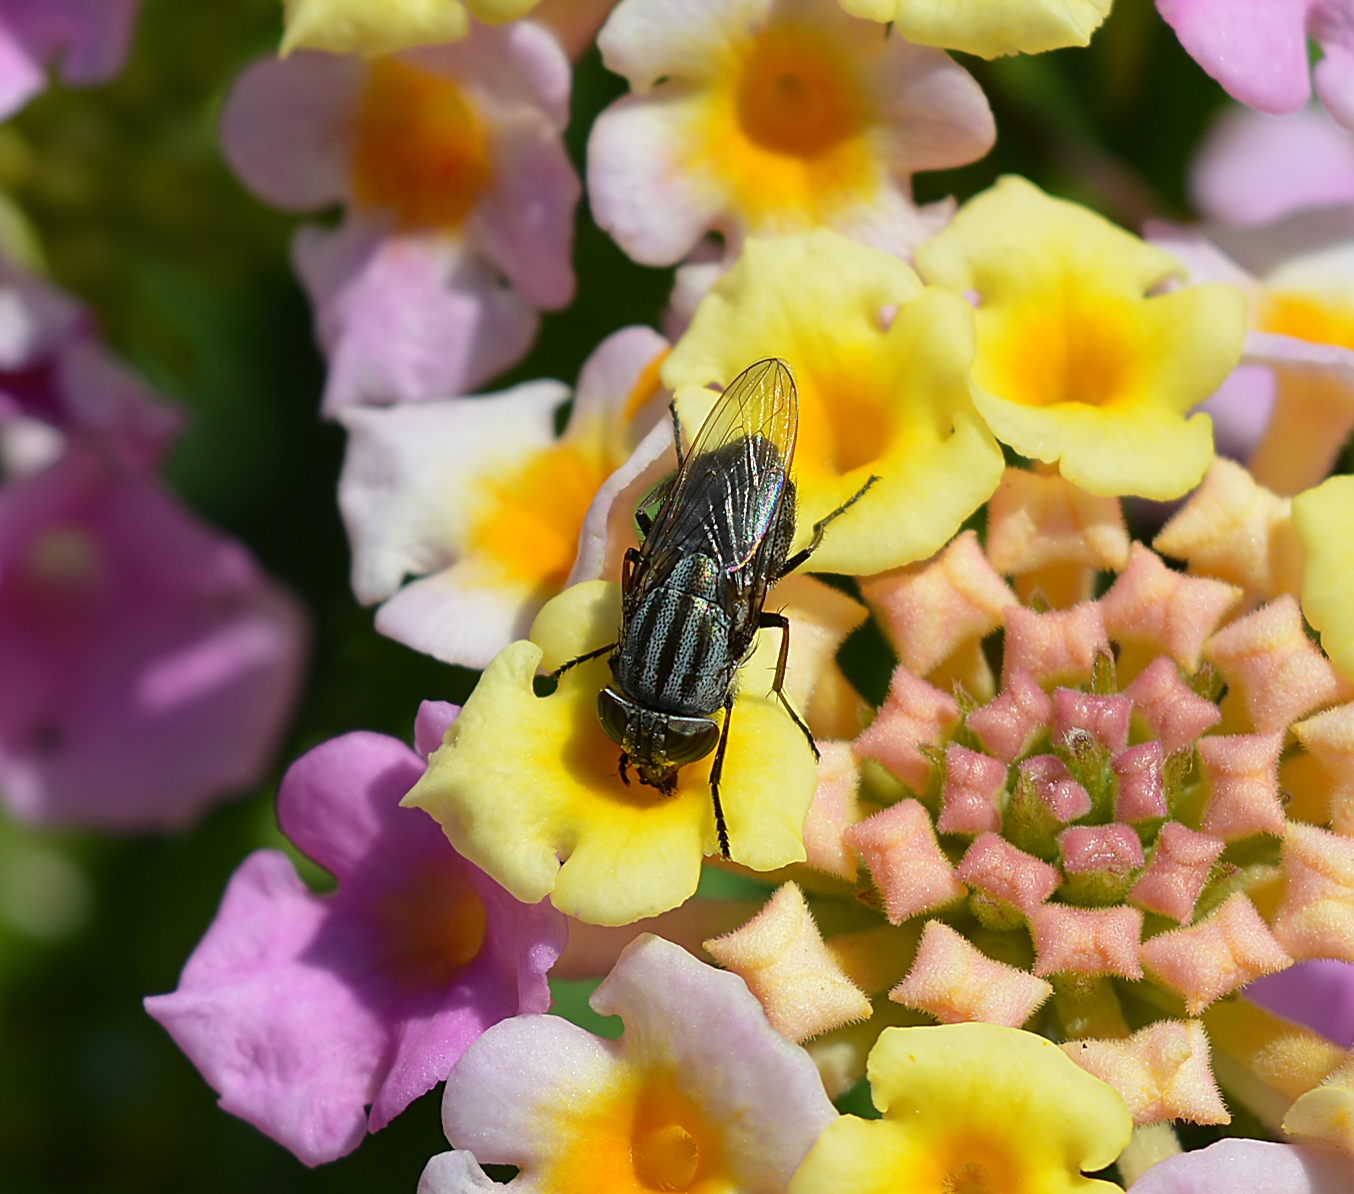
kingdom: Animalia
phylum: Arthropoda
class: Insecta
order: Diptera
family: Calliphoridae
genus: Stomorhina
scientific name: Stomorhina lunata
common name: Locust blowfly
